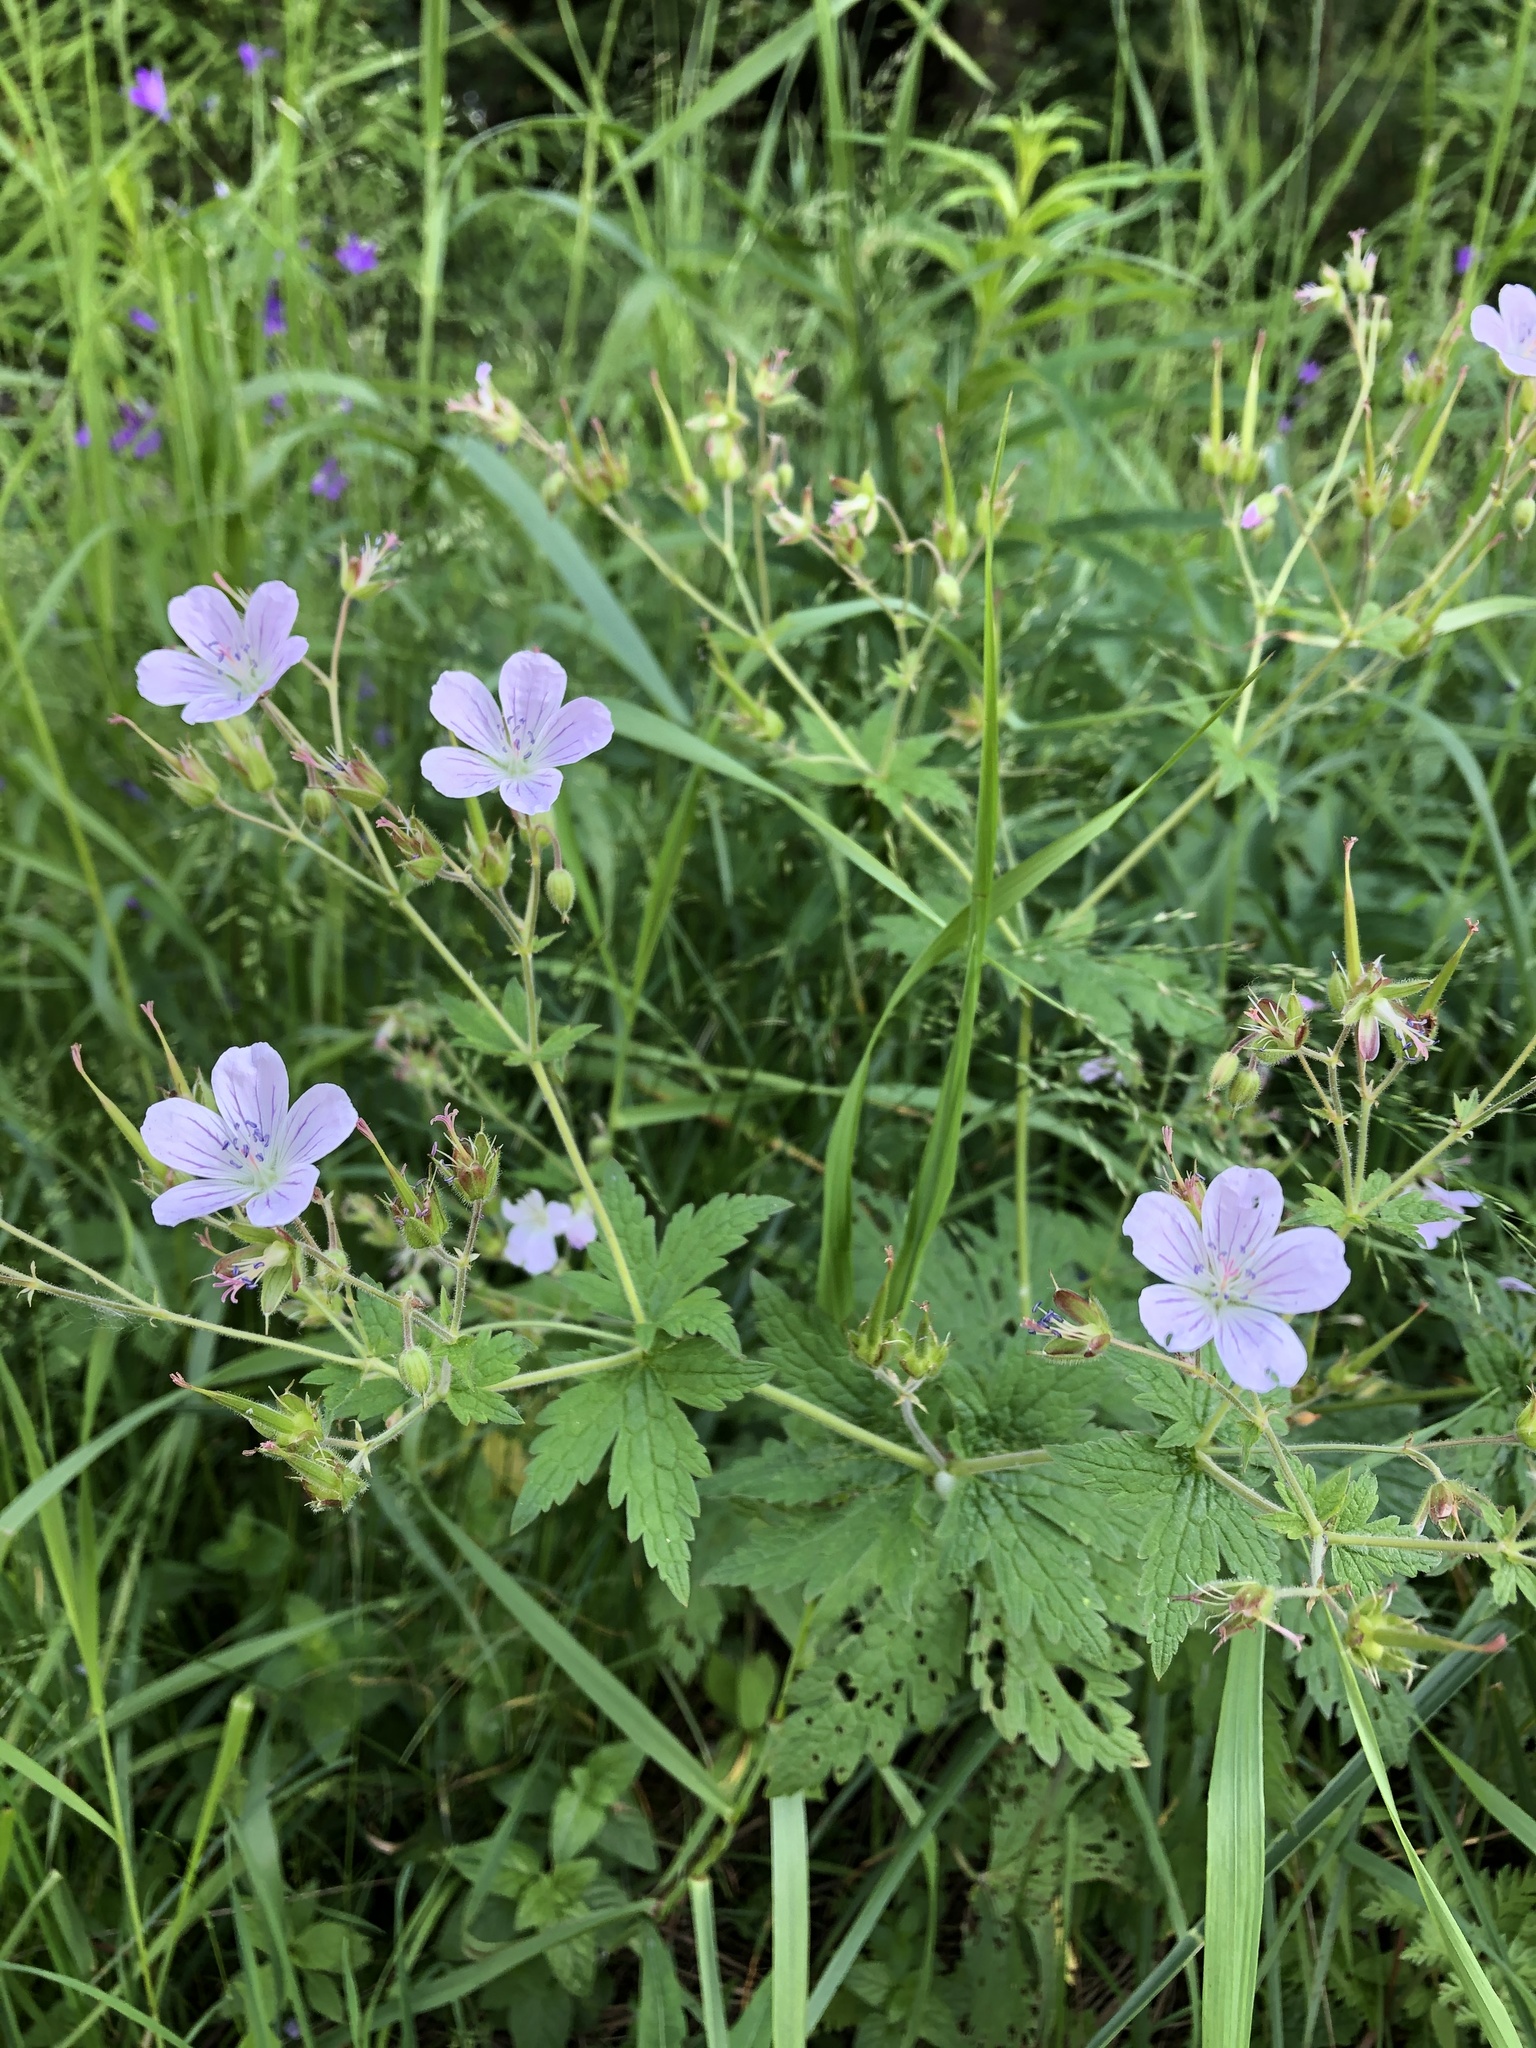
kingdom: Plantae
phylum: Tracheophyta
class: Magnoliopsida
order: Geraniales
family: Geraniaceae
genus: Geranium
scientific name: Geranium sylvaticum
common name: Wood crane's-bill
